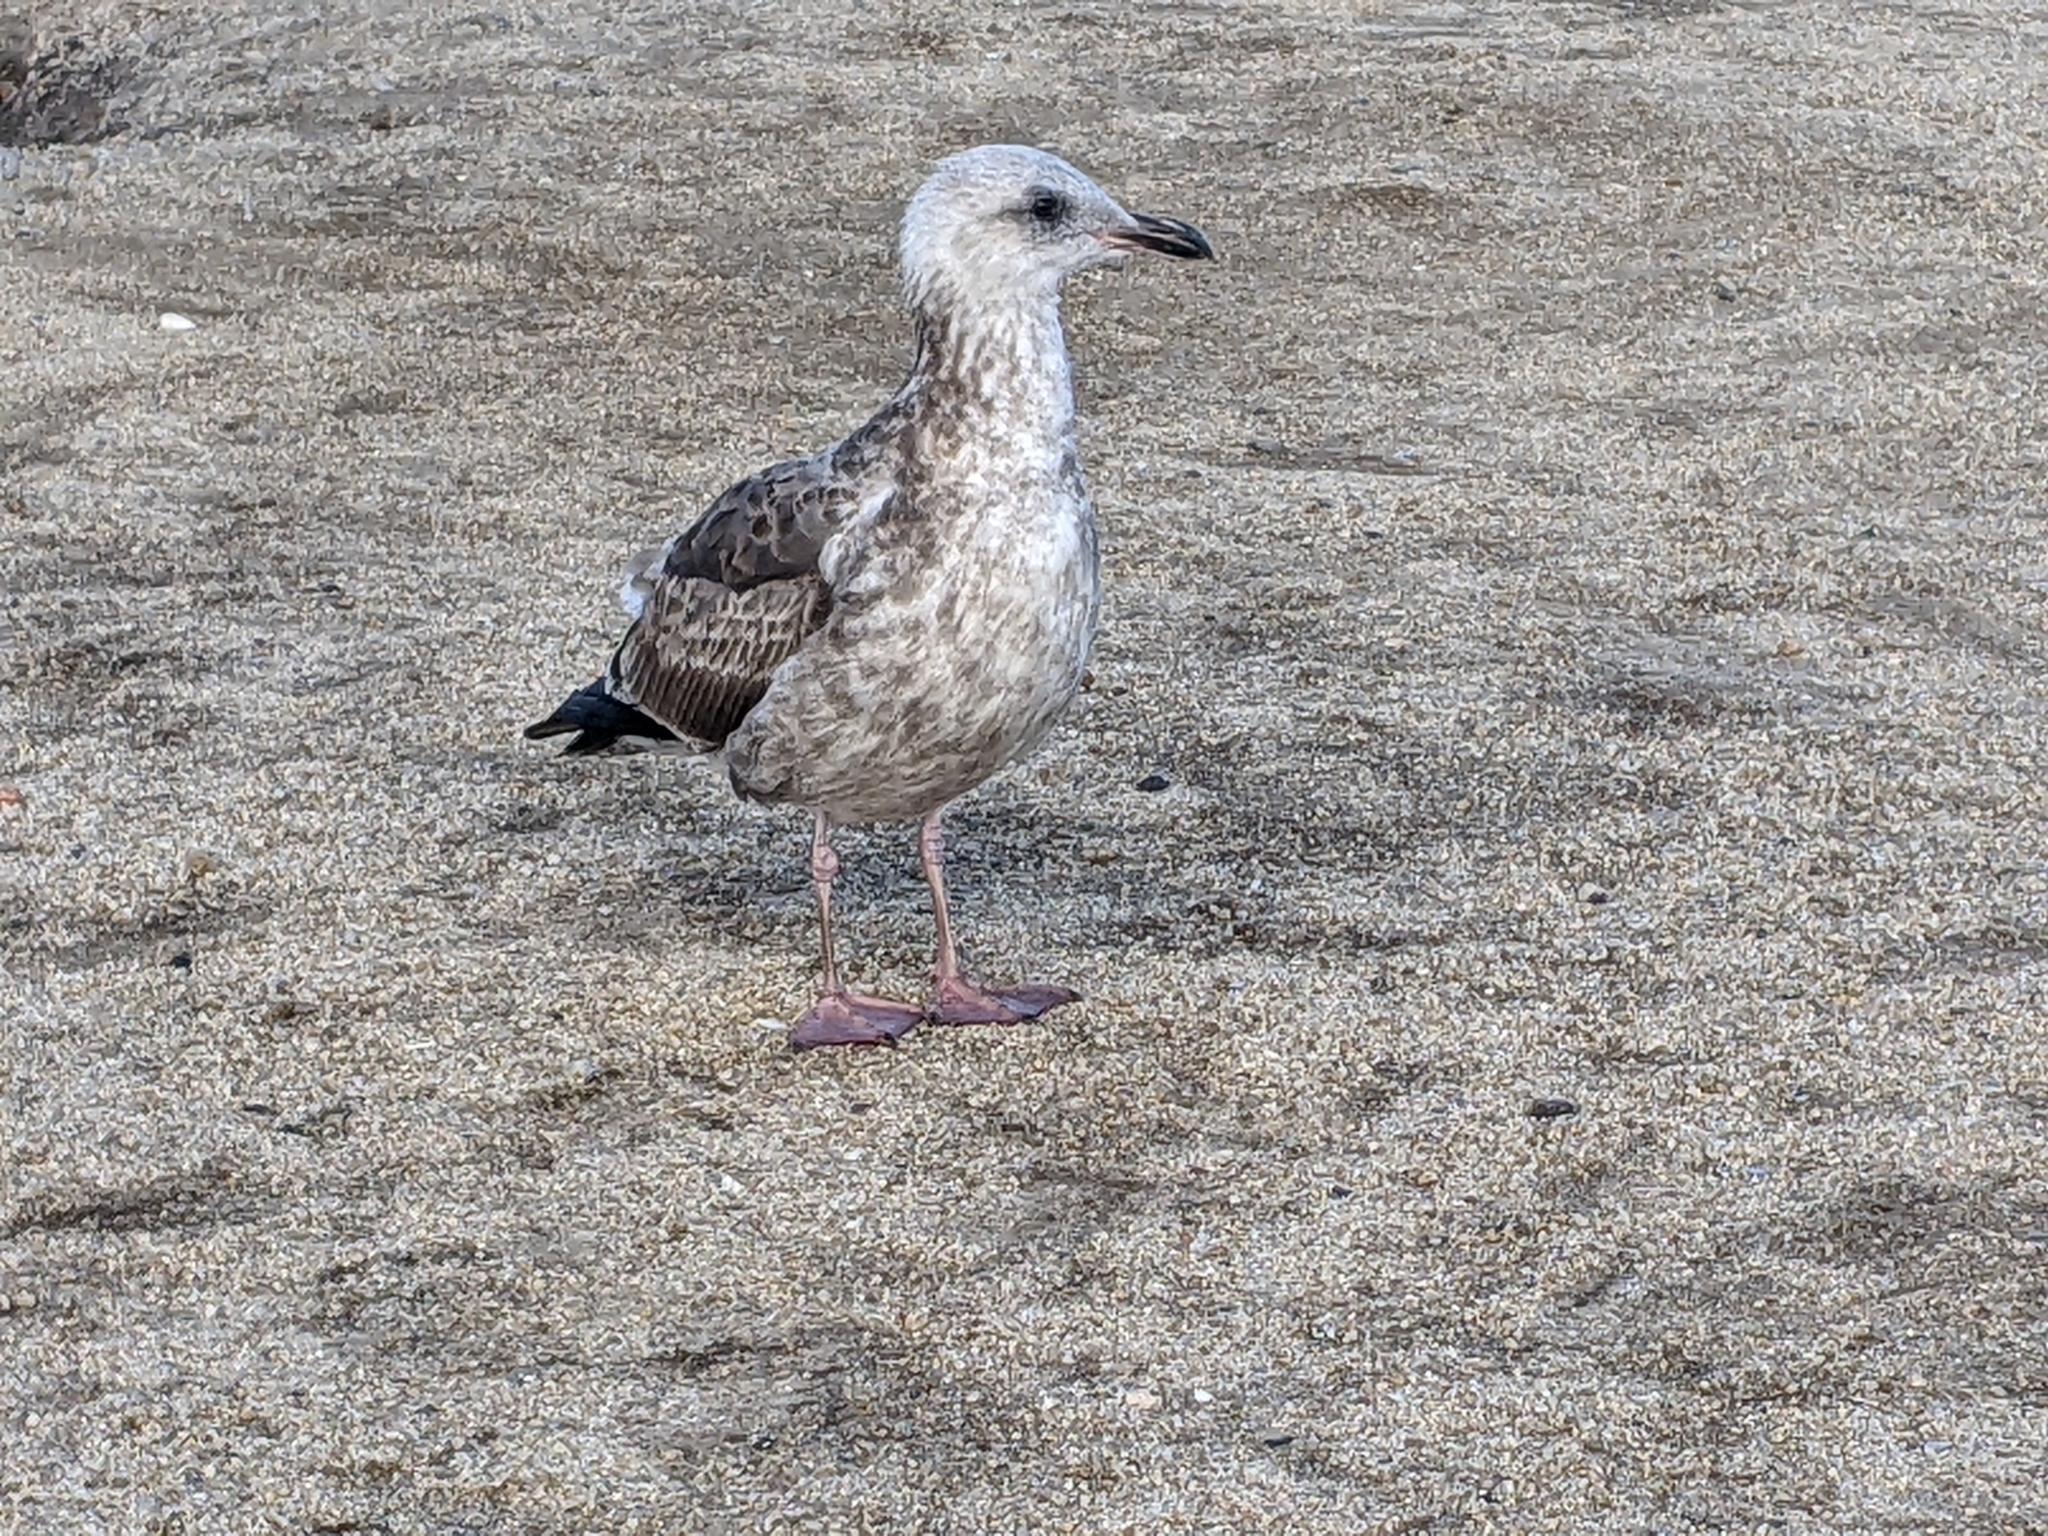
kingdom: Animalia
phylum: Chordata
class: Aves
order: Charadriiformes
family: Laridae
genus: Larus
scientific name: Larus occidentalis
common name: Western gull
